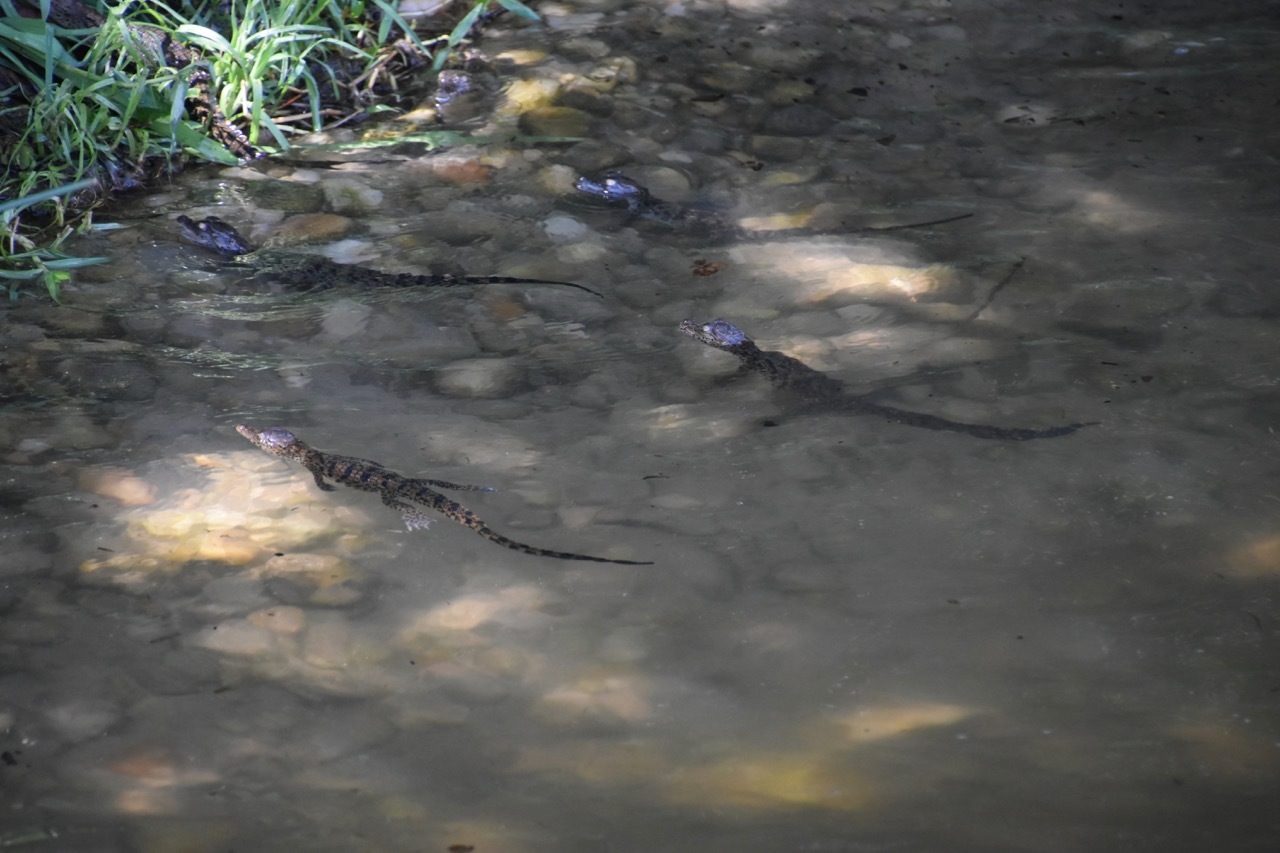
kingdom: Animalia
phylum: Chordata
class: Crocodylia
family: Crocodylidae
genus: Crocodylus
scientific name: Crocodylus niloticus
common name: Nile crocodile
